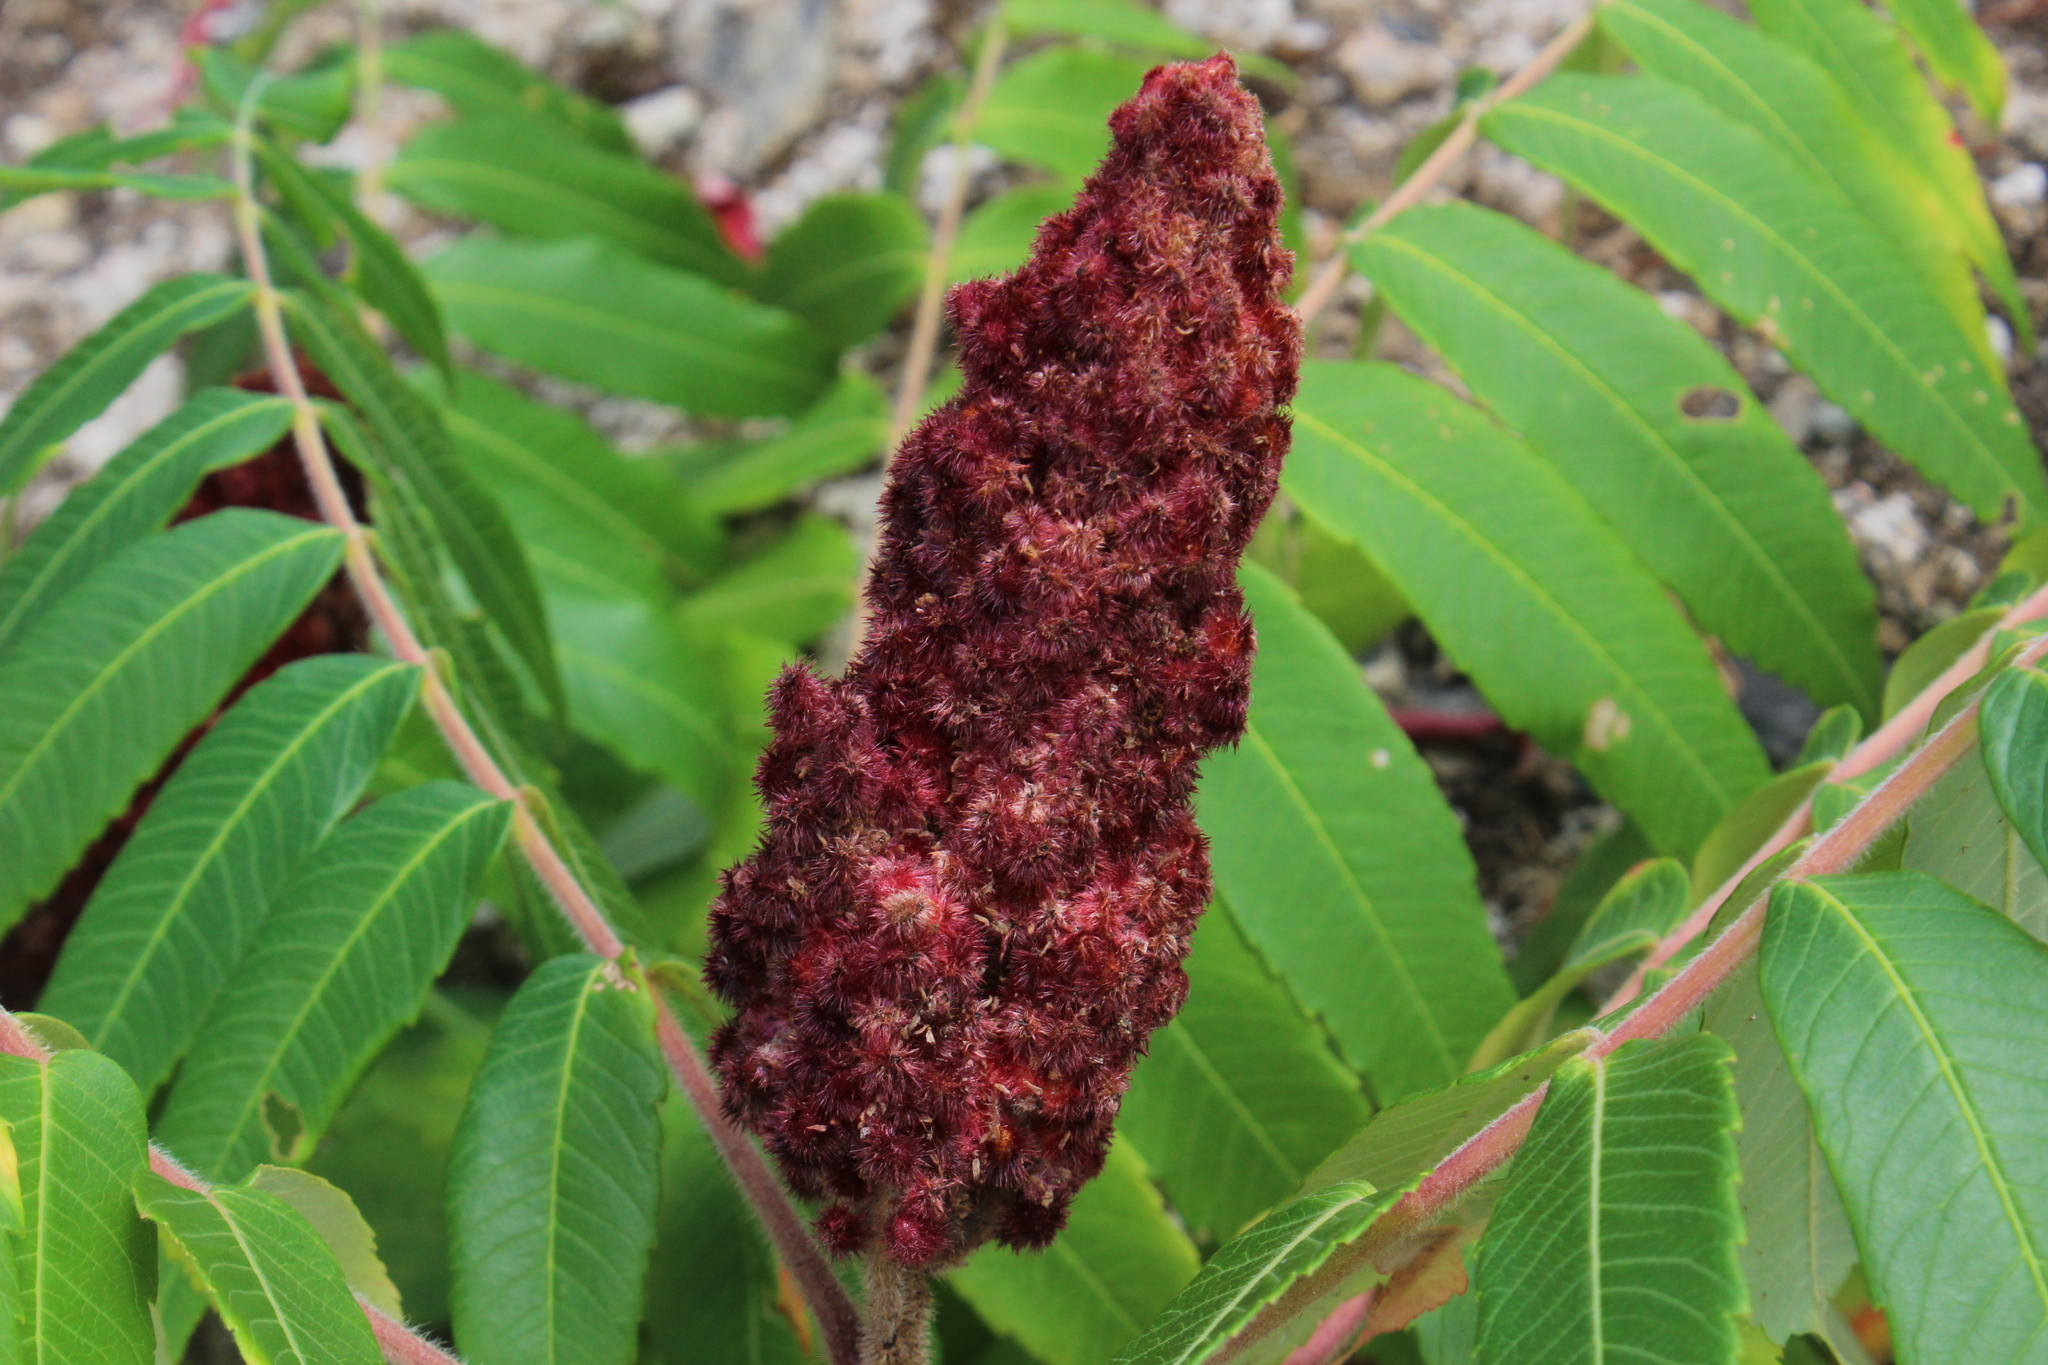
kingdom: Plantae
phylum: Tracheophyta
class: Magnoliopsida
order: Sapindales
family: Anacardiaceae
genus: Rhus
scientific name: Rhus typhina
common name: Staghorn sumac
